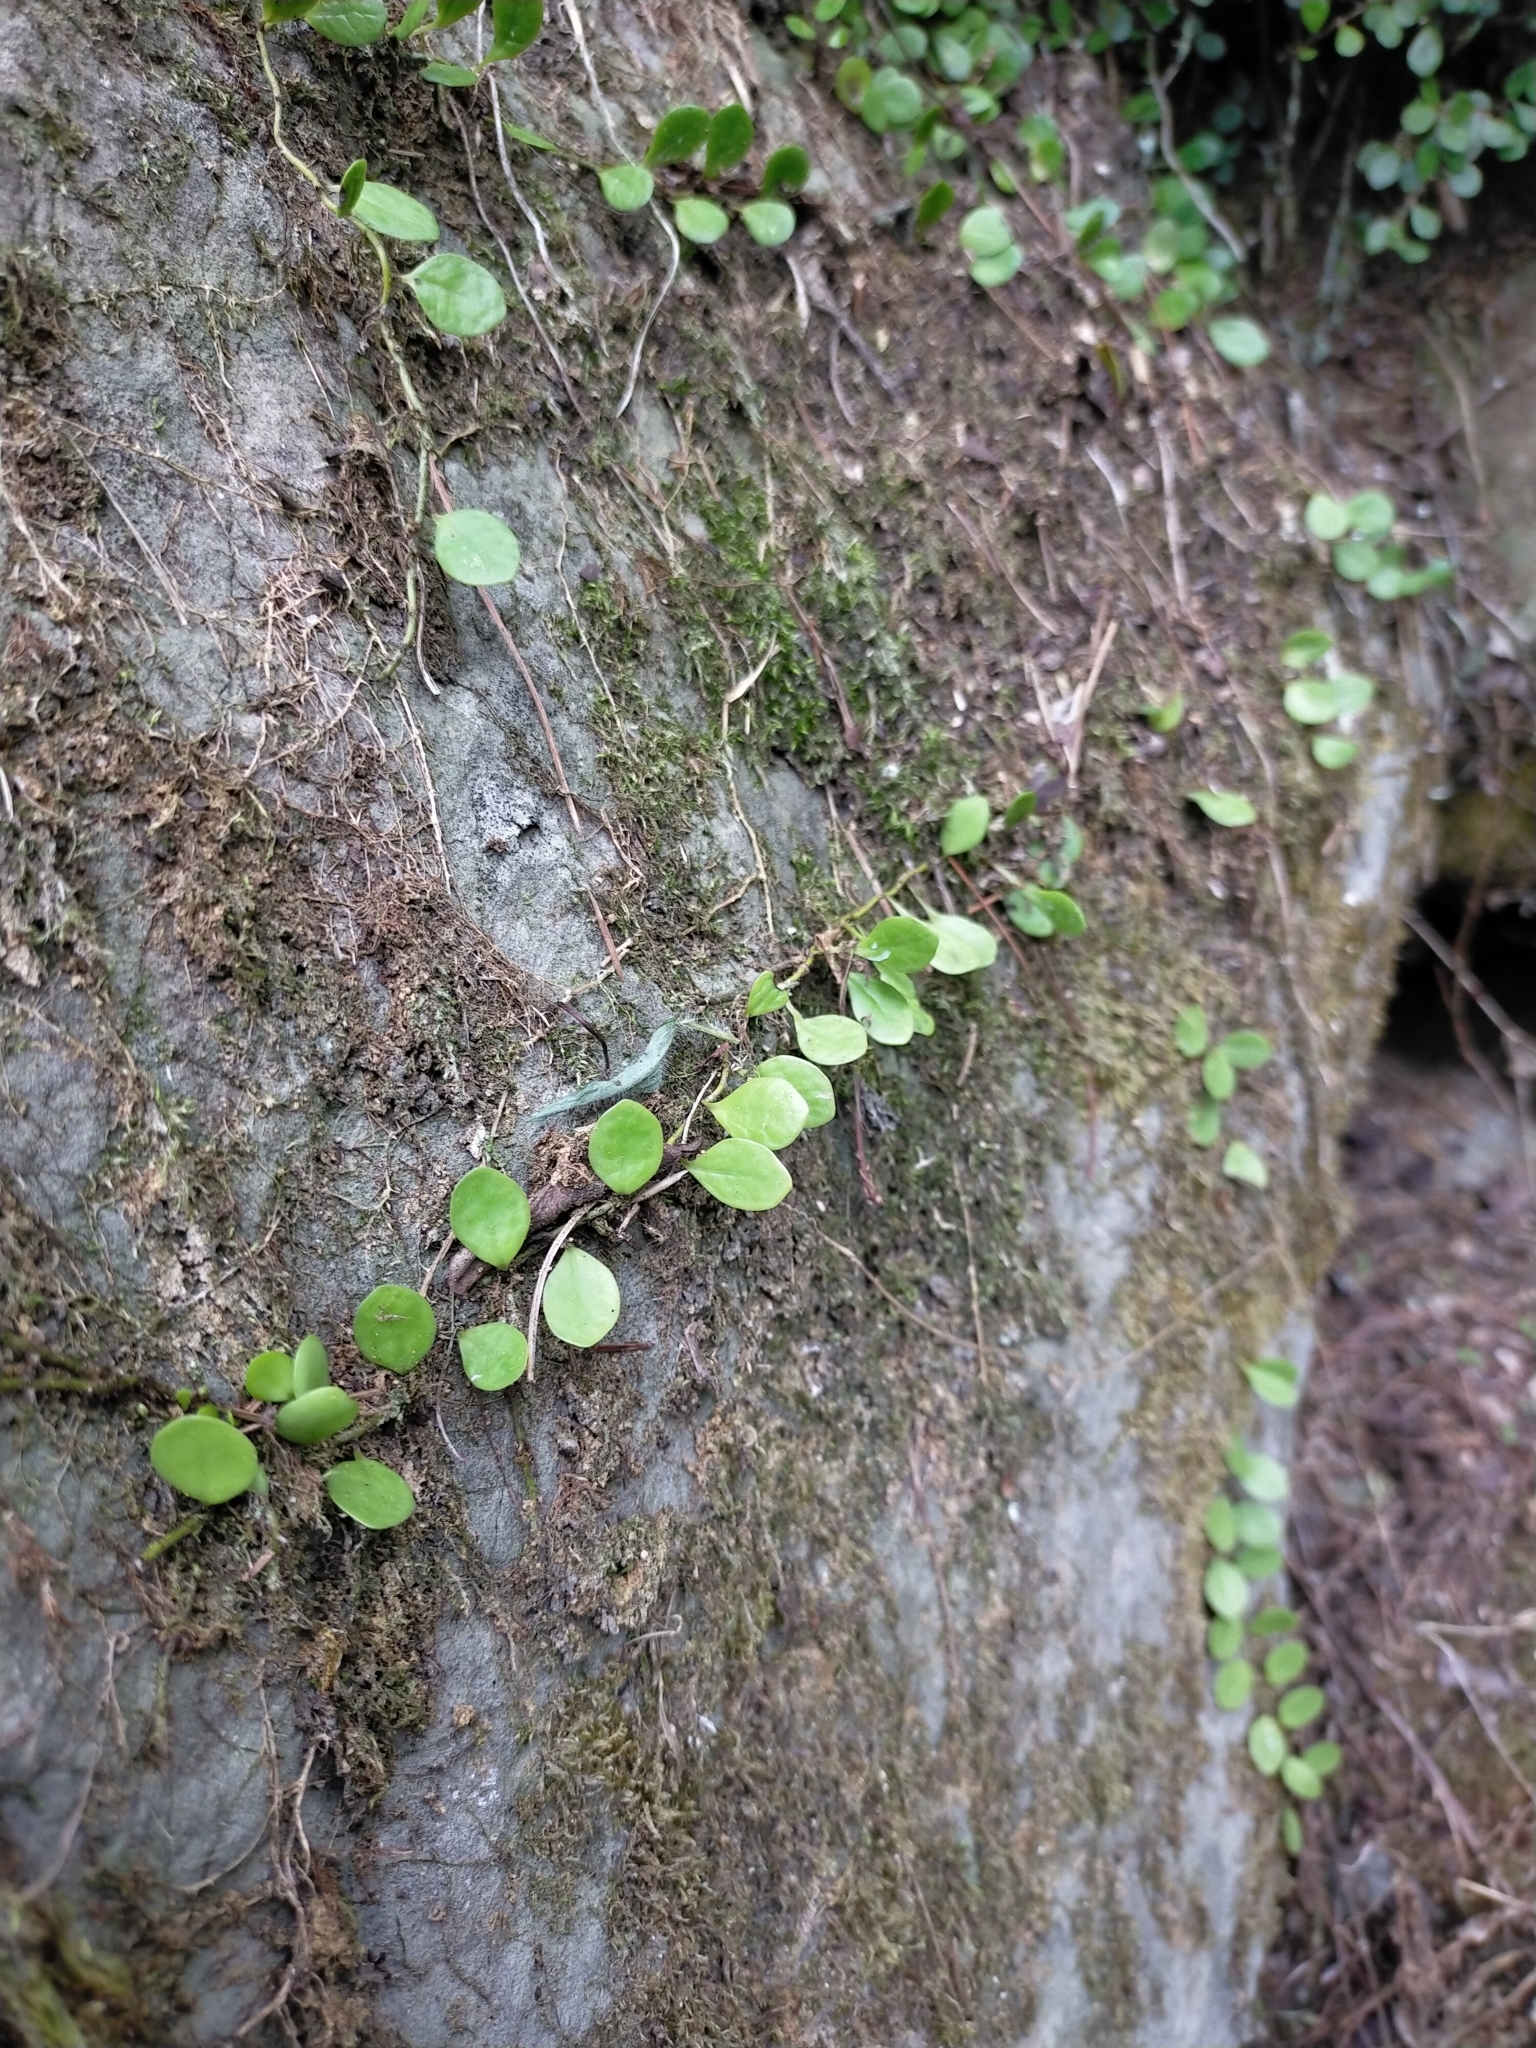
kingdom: Plantae
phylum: Tracheophyta
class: Polypodiopsida
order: Polypodiales
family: Polypodiaceae
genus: Lepisorus
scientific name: Lepisorus microphyllus
